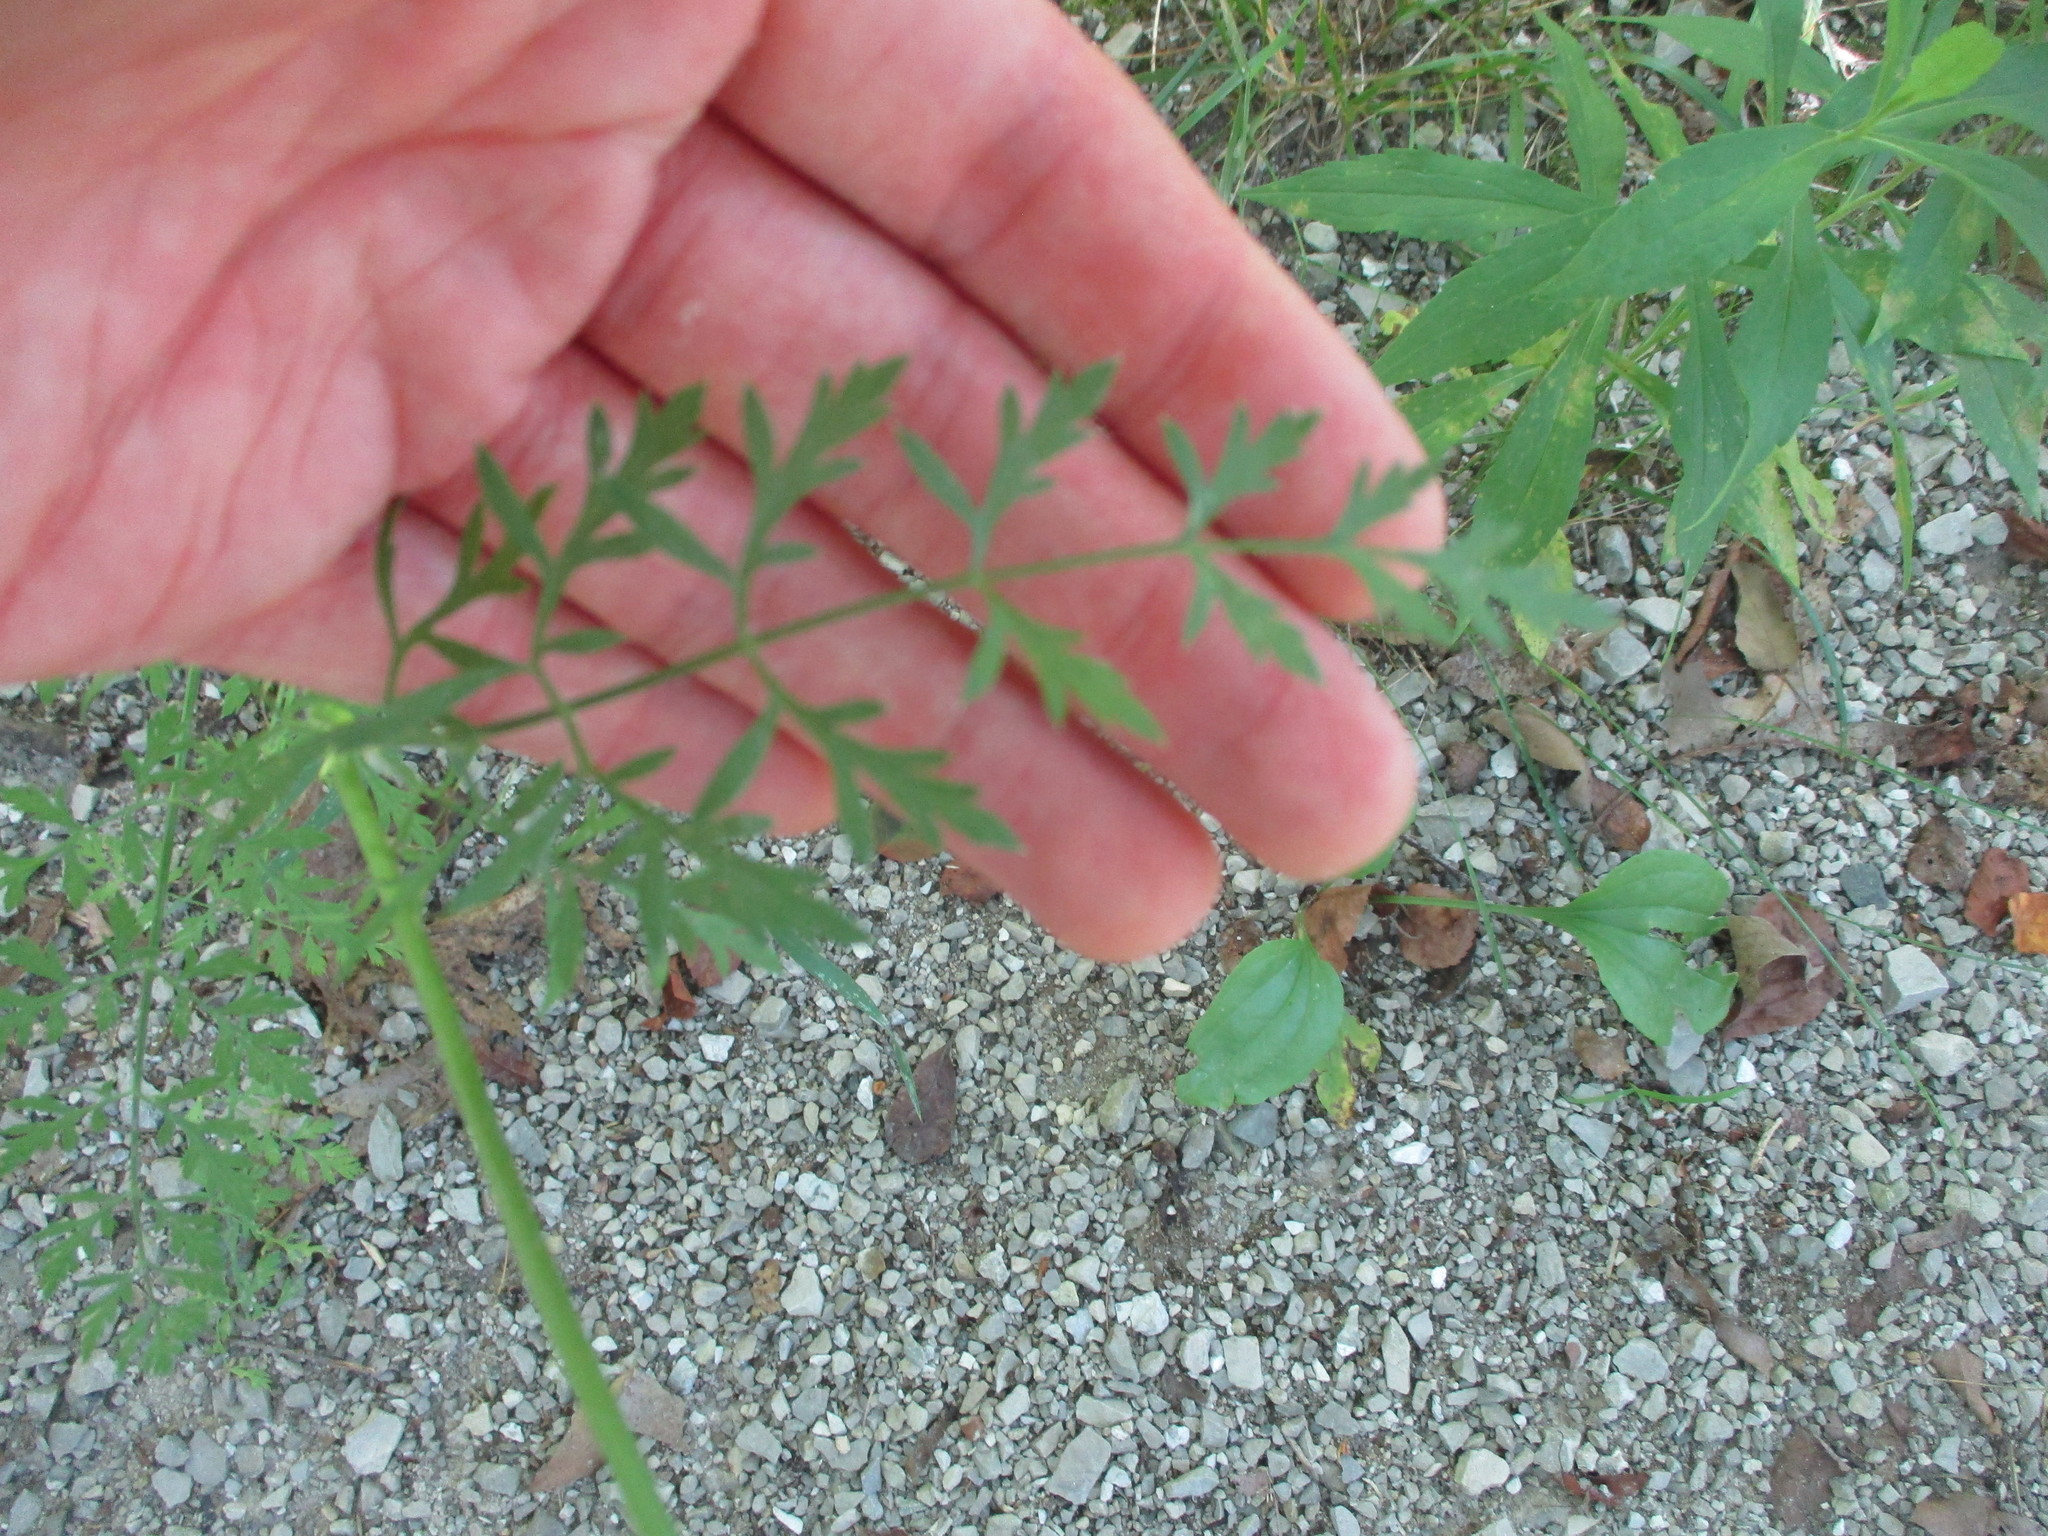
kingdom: Plantae
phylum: Tracheophyta
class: Magnoliopsida
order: Apiales
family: Apiaceae
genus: Daucus
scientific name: Daucus carota
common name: Wild carrot
